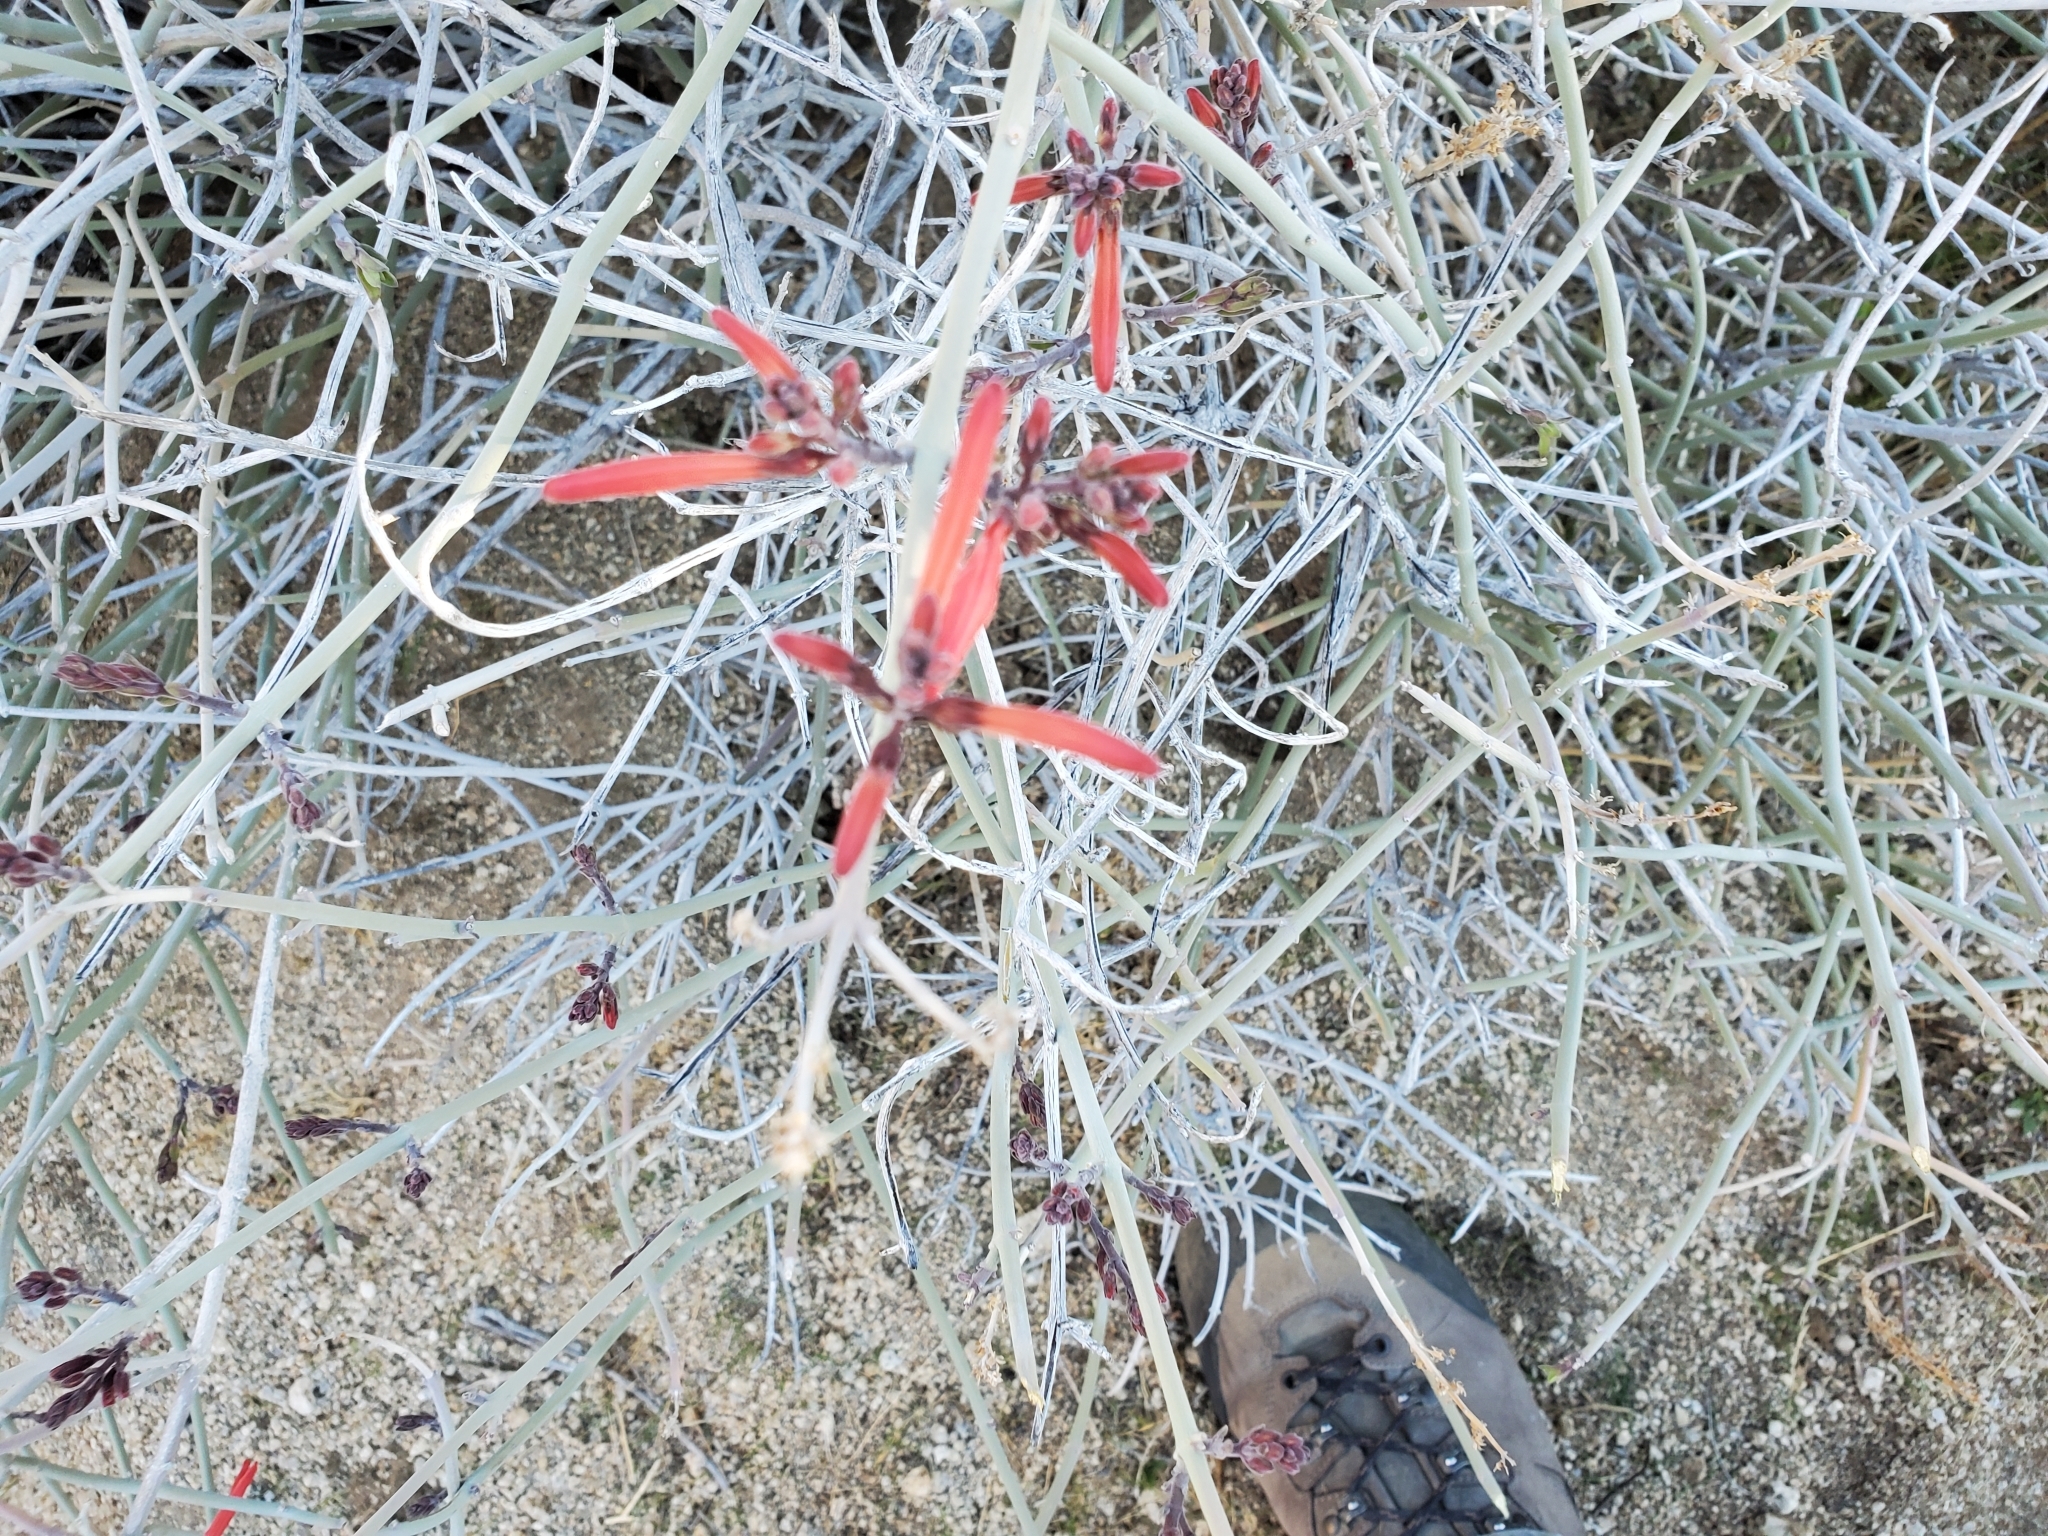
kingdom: Plantae
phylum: Tracheophyta
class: Magnoliopsida
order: Lamiales
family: Acanthaceae
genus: Justicia
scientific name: Justicia californica
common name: Chuparosa-honeysuckle
